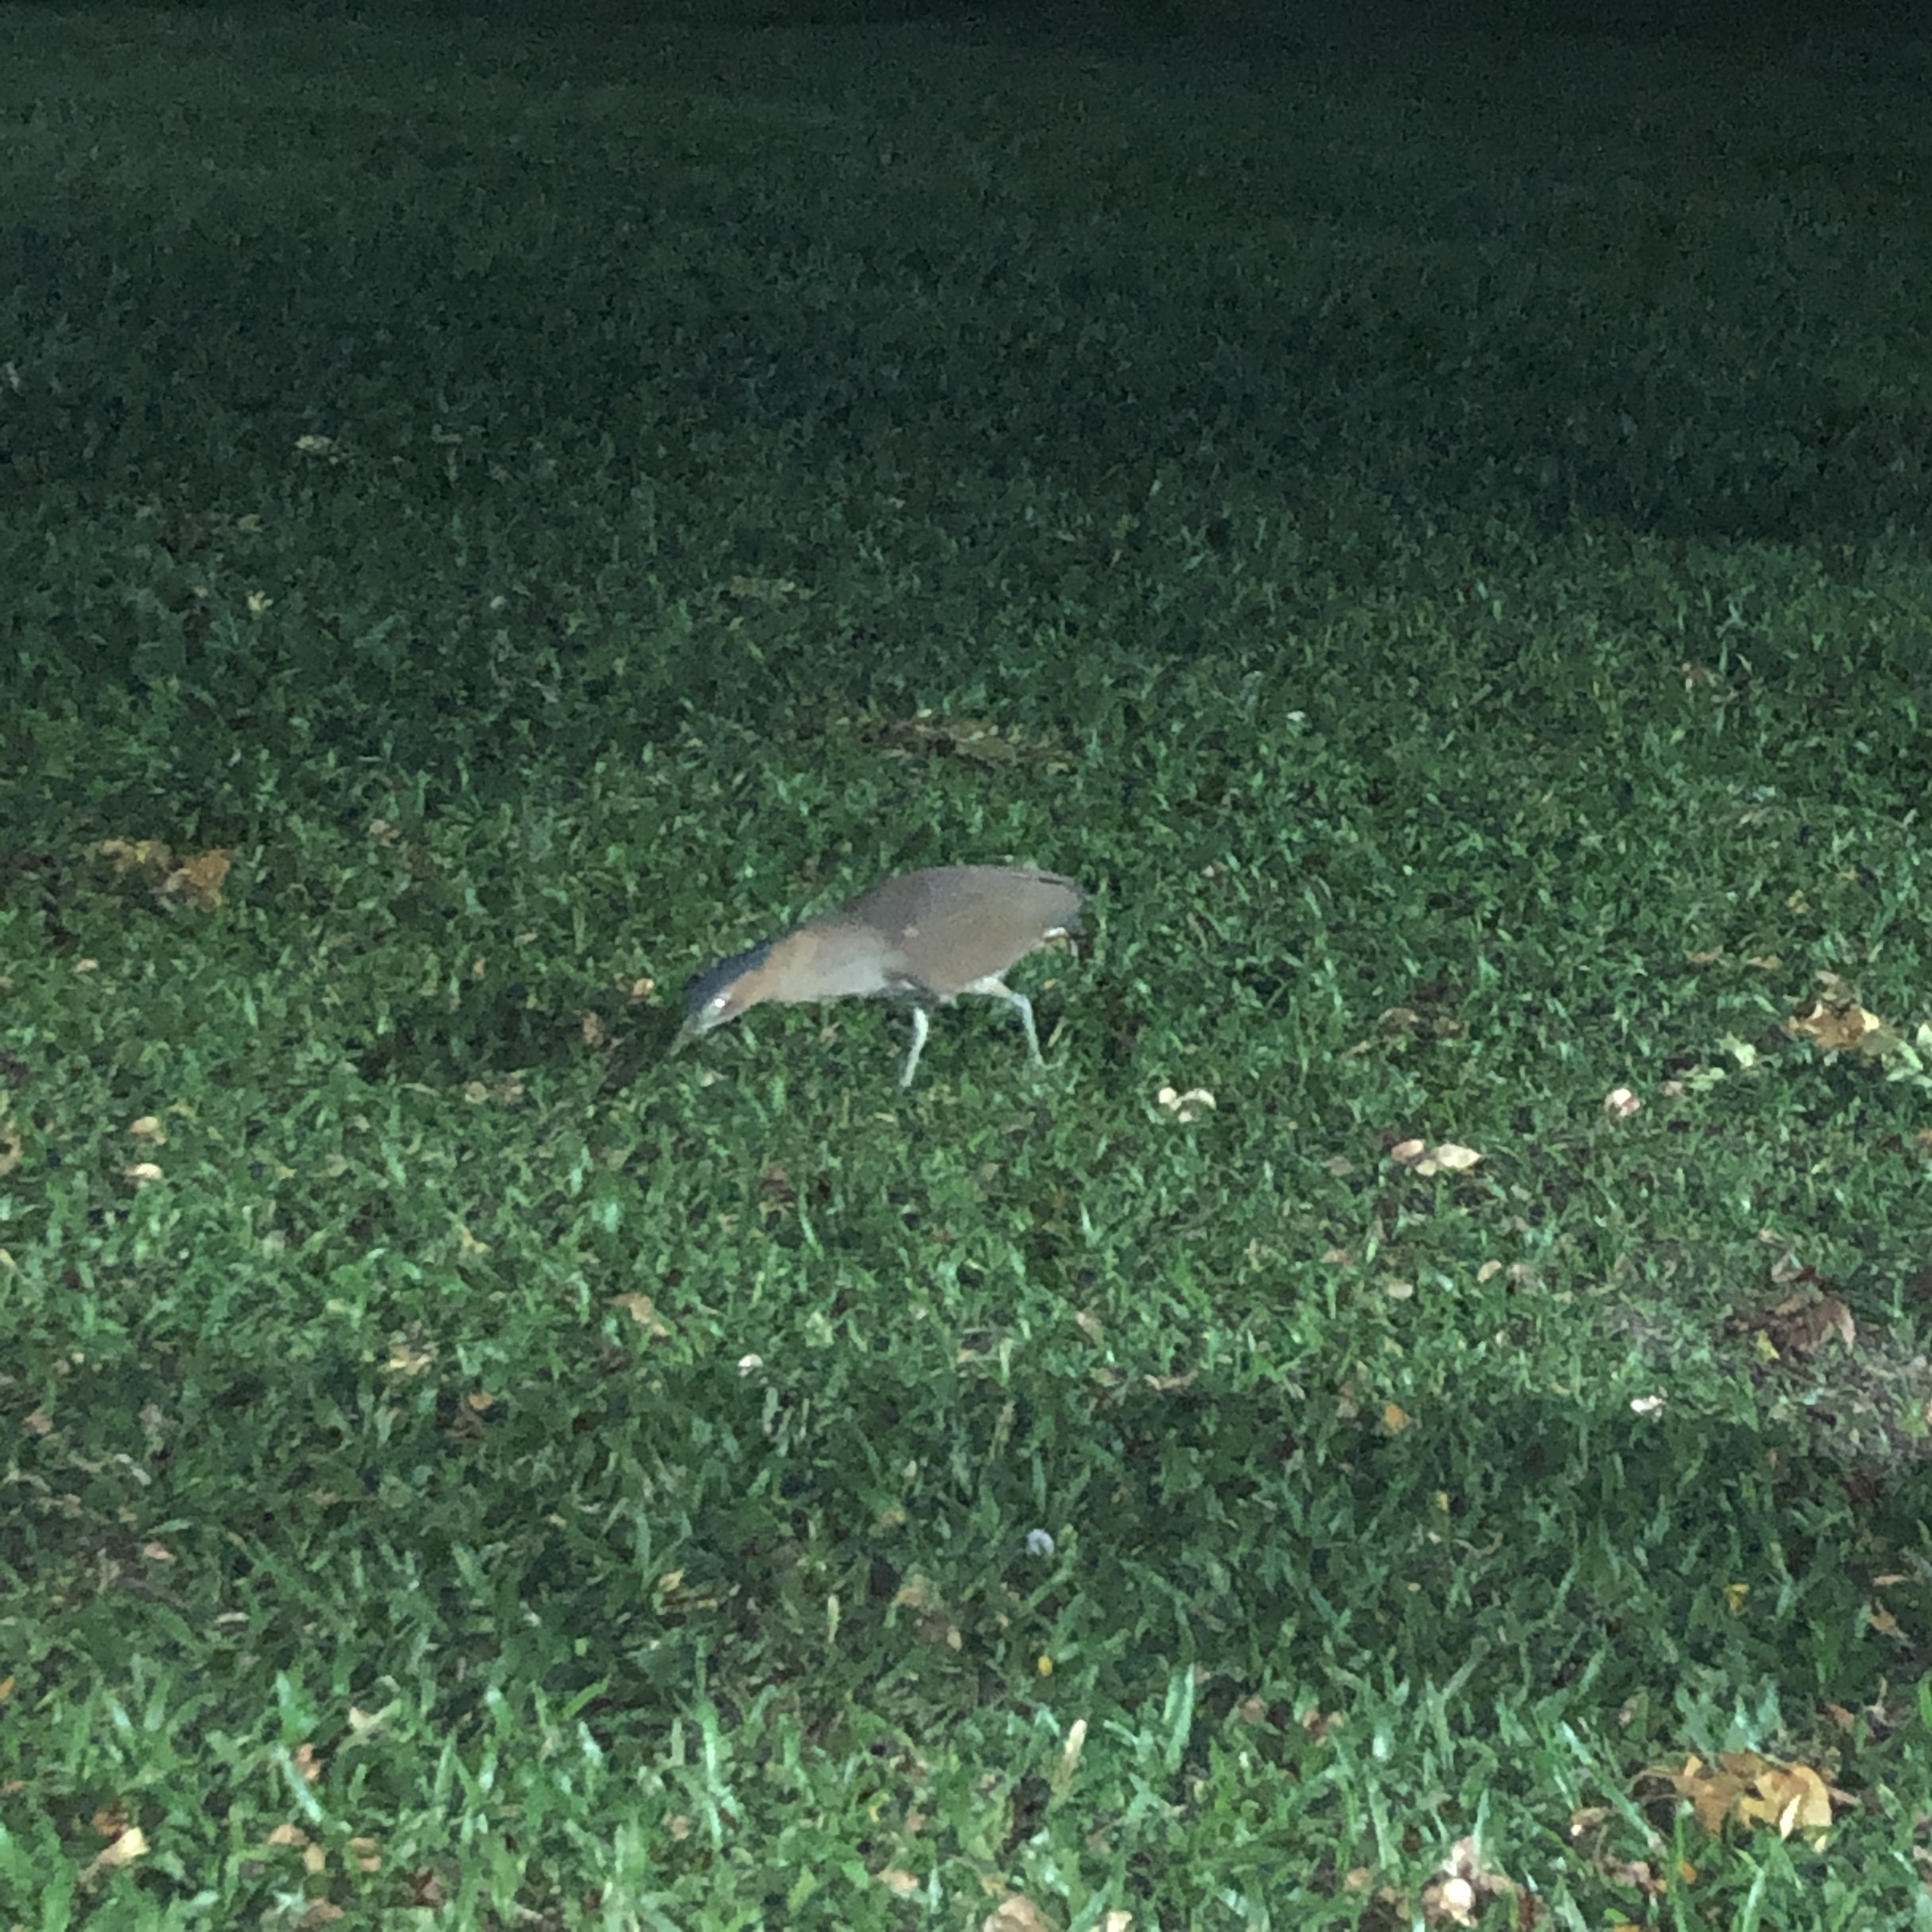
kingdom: Animalia
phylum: Chordata
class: Aves
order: Pelecaniformes
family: Ardeidae
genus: Gorsachius
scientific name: Gorsachius melanolophus
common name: Malayan night heron
